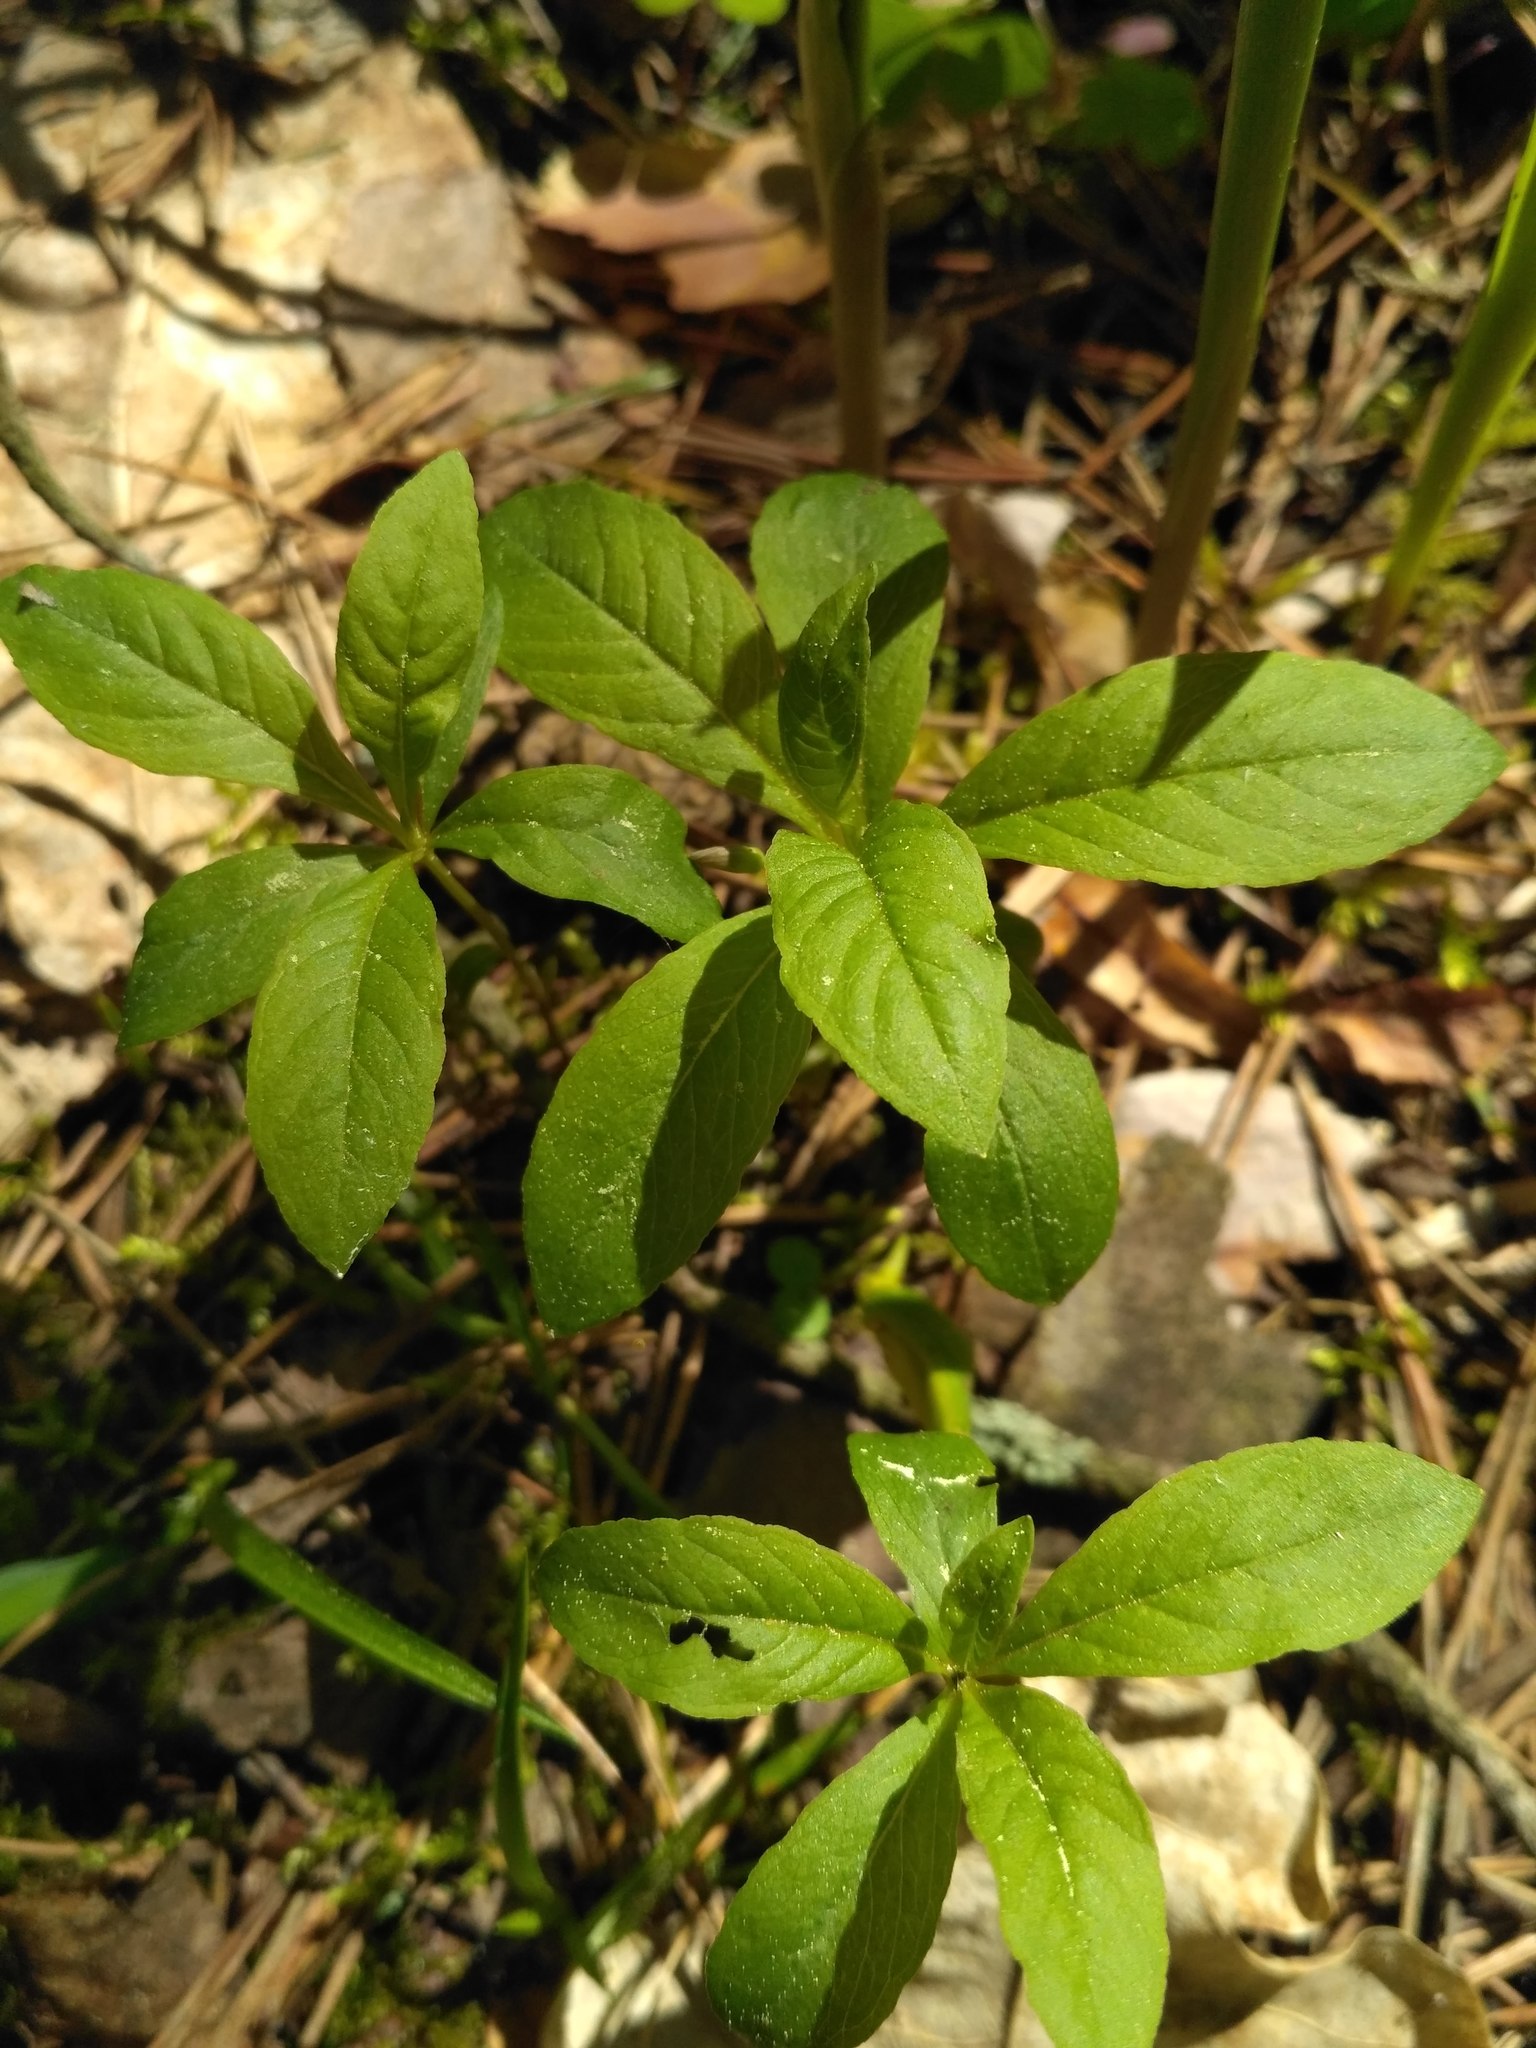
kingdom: Plantae
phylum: Tracheophyta
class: Magnoliopsida
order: Ericales
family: Primulaceae
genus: Lysimachia
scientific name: Lysimachia europaea
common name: Arctic starflower
